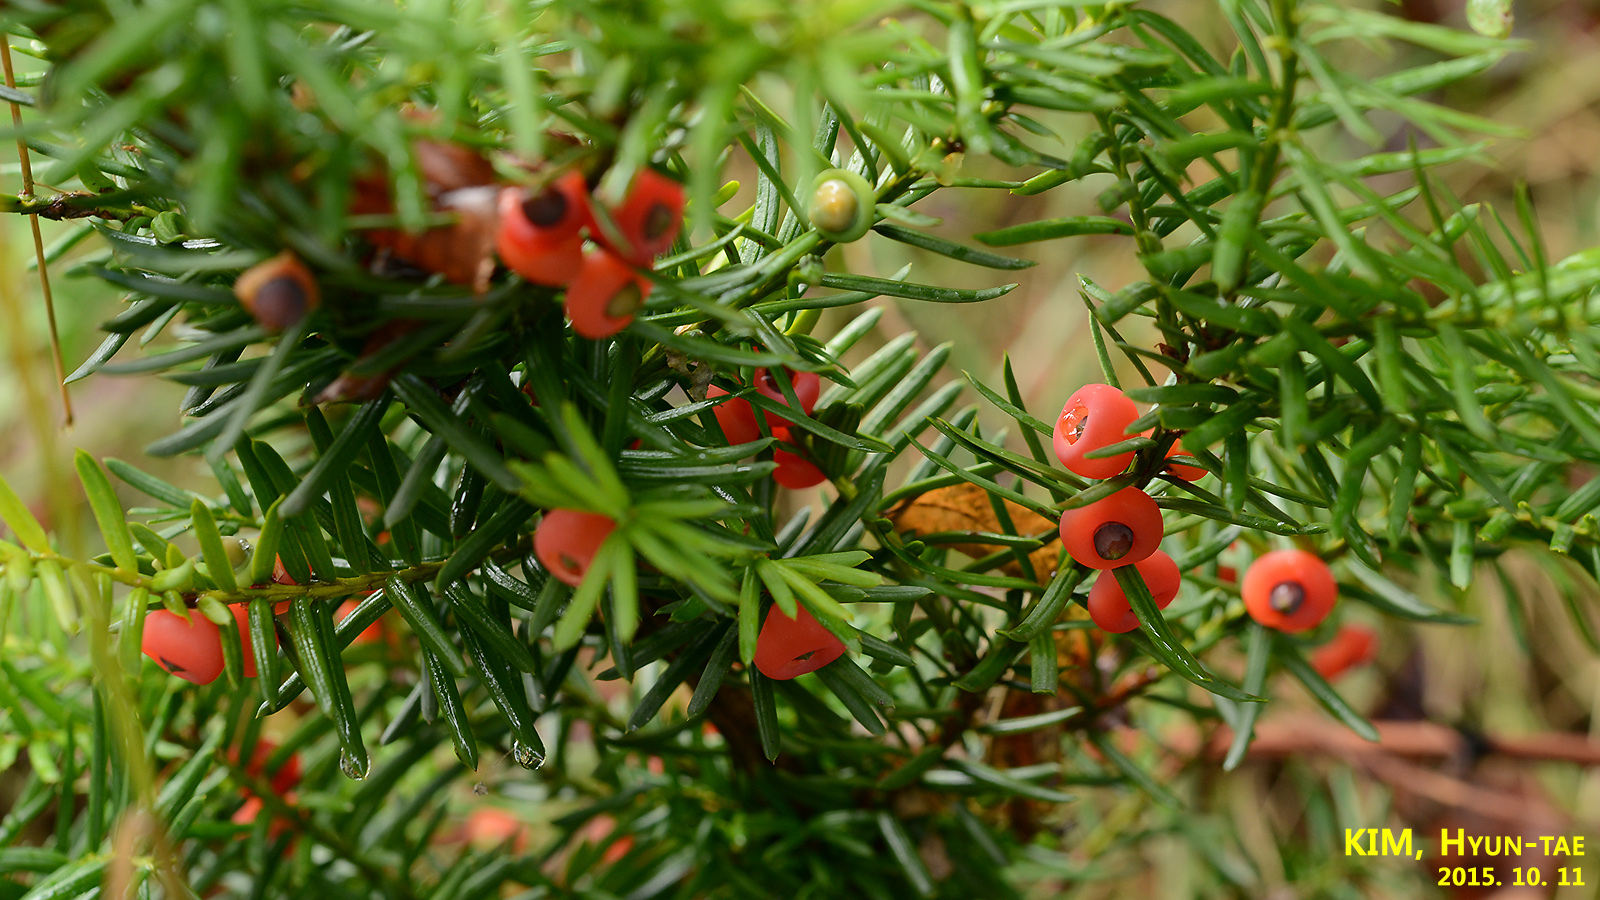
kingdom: Plantae
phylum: Tracheophyta
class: Pinopsida
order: Pinales
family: Taxaceae
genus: Taxus
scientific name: Taxus cuspidata
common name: Japanese yew
